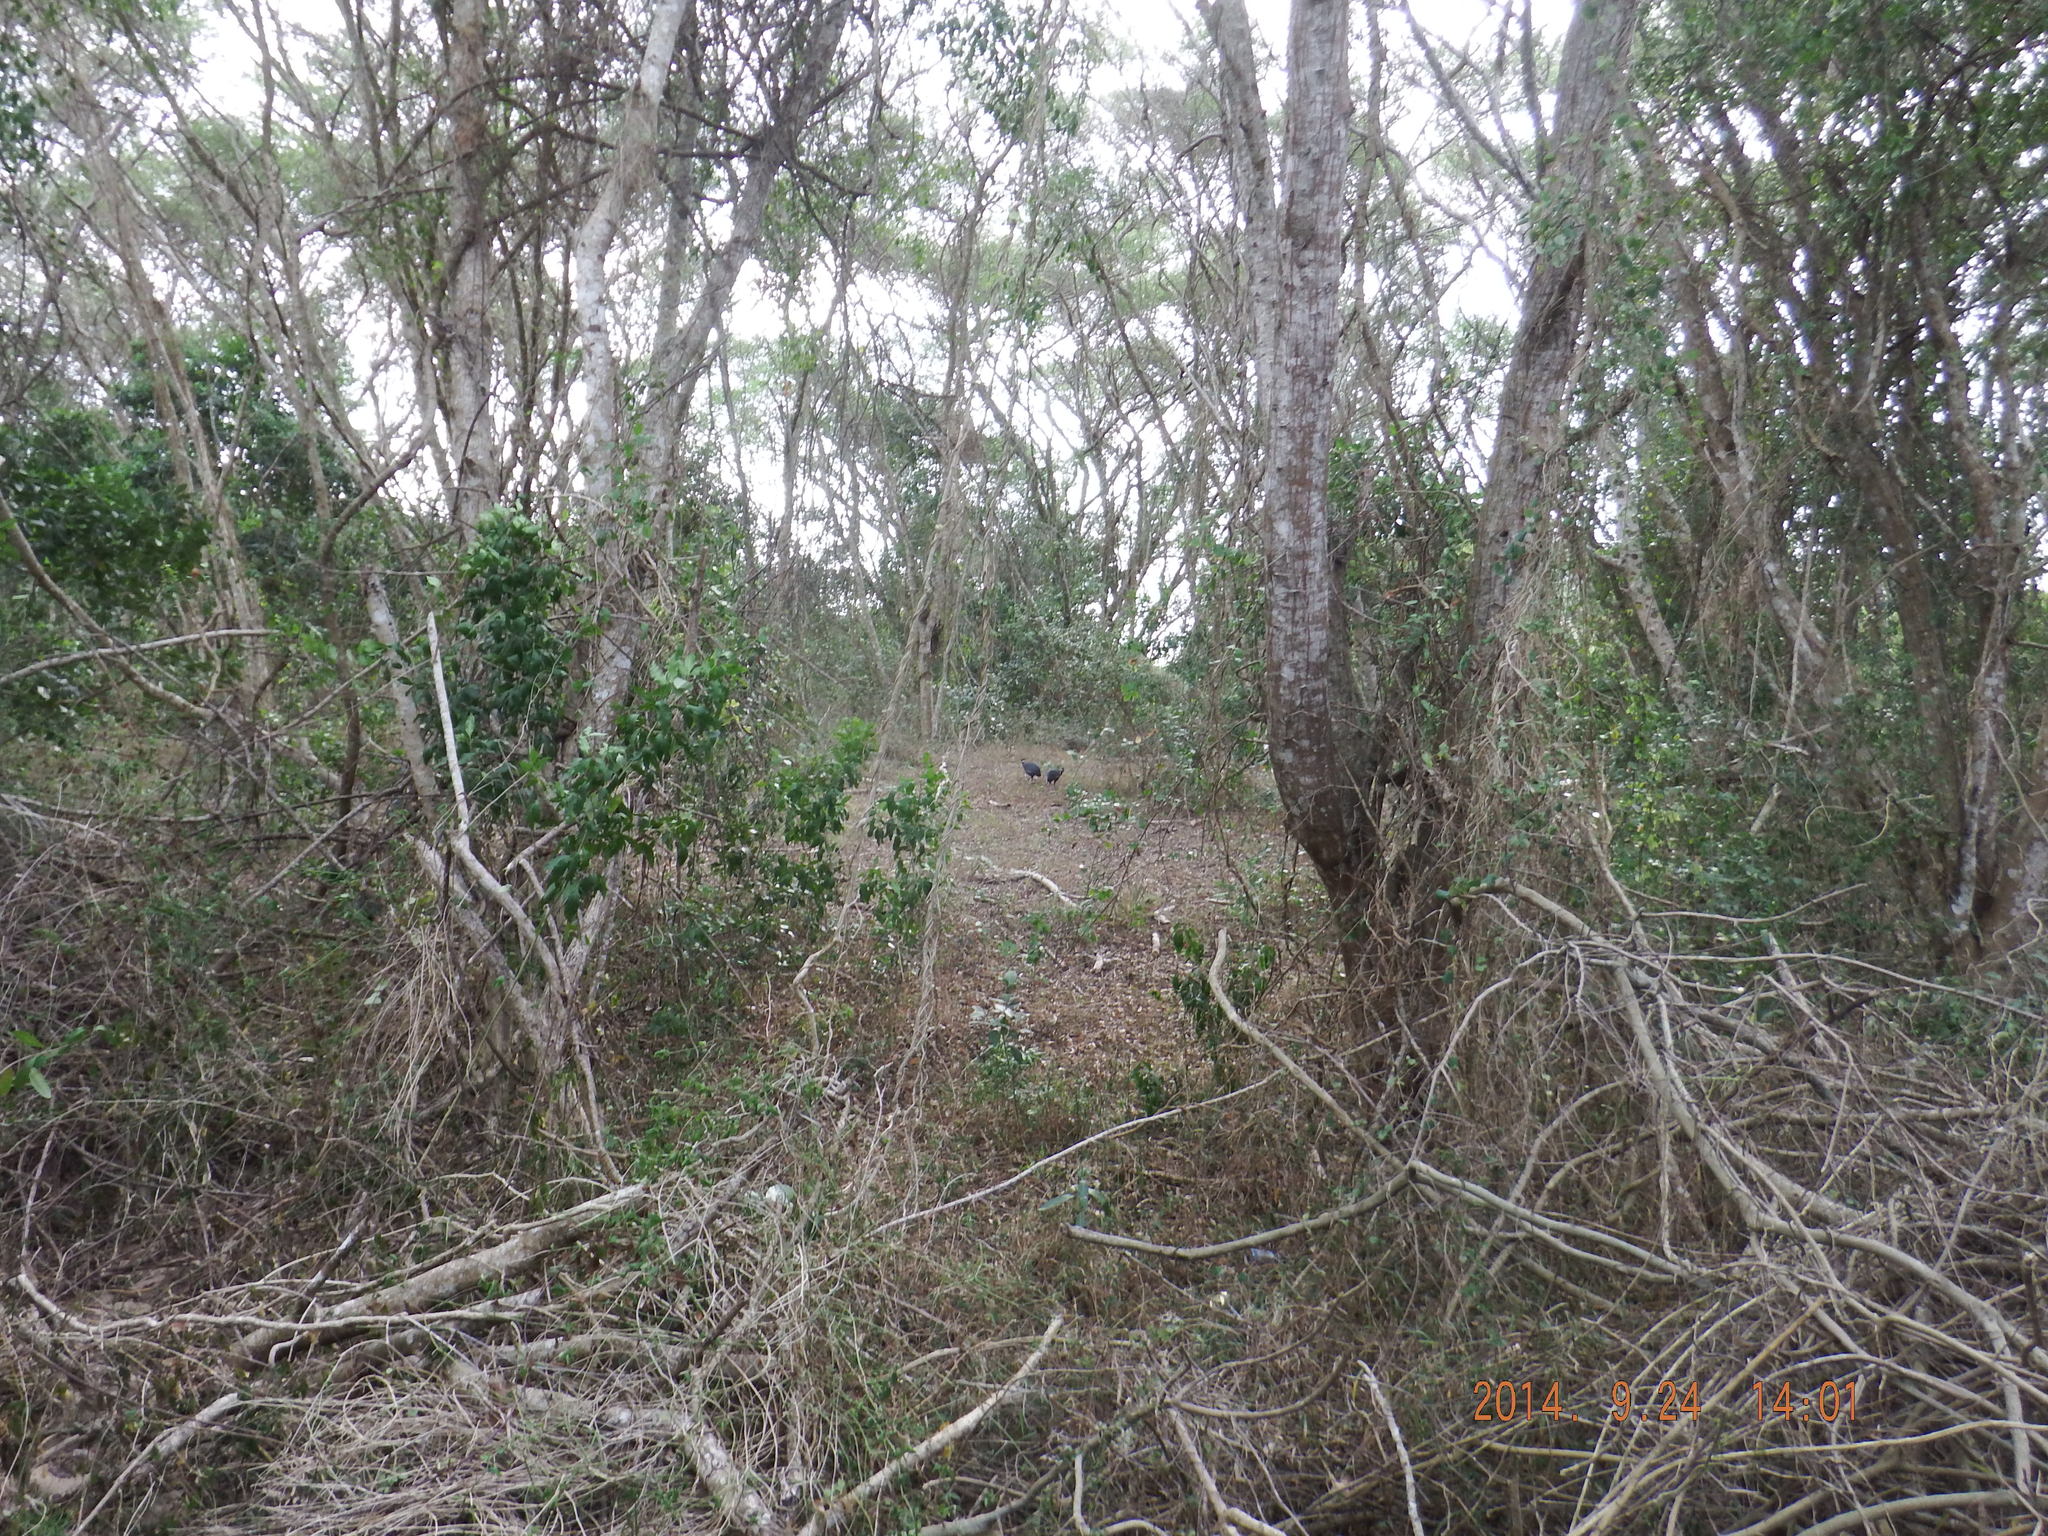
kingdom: Animalia
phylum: Chordata
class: Aves
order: Galliformes
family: Numididae
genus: Guttera
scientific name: Guttera pucherani
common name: Crested guineafowl
